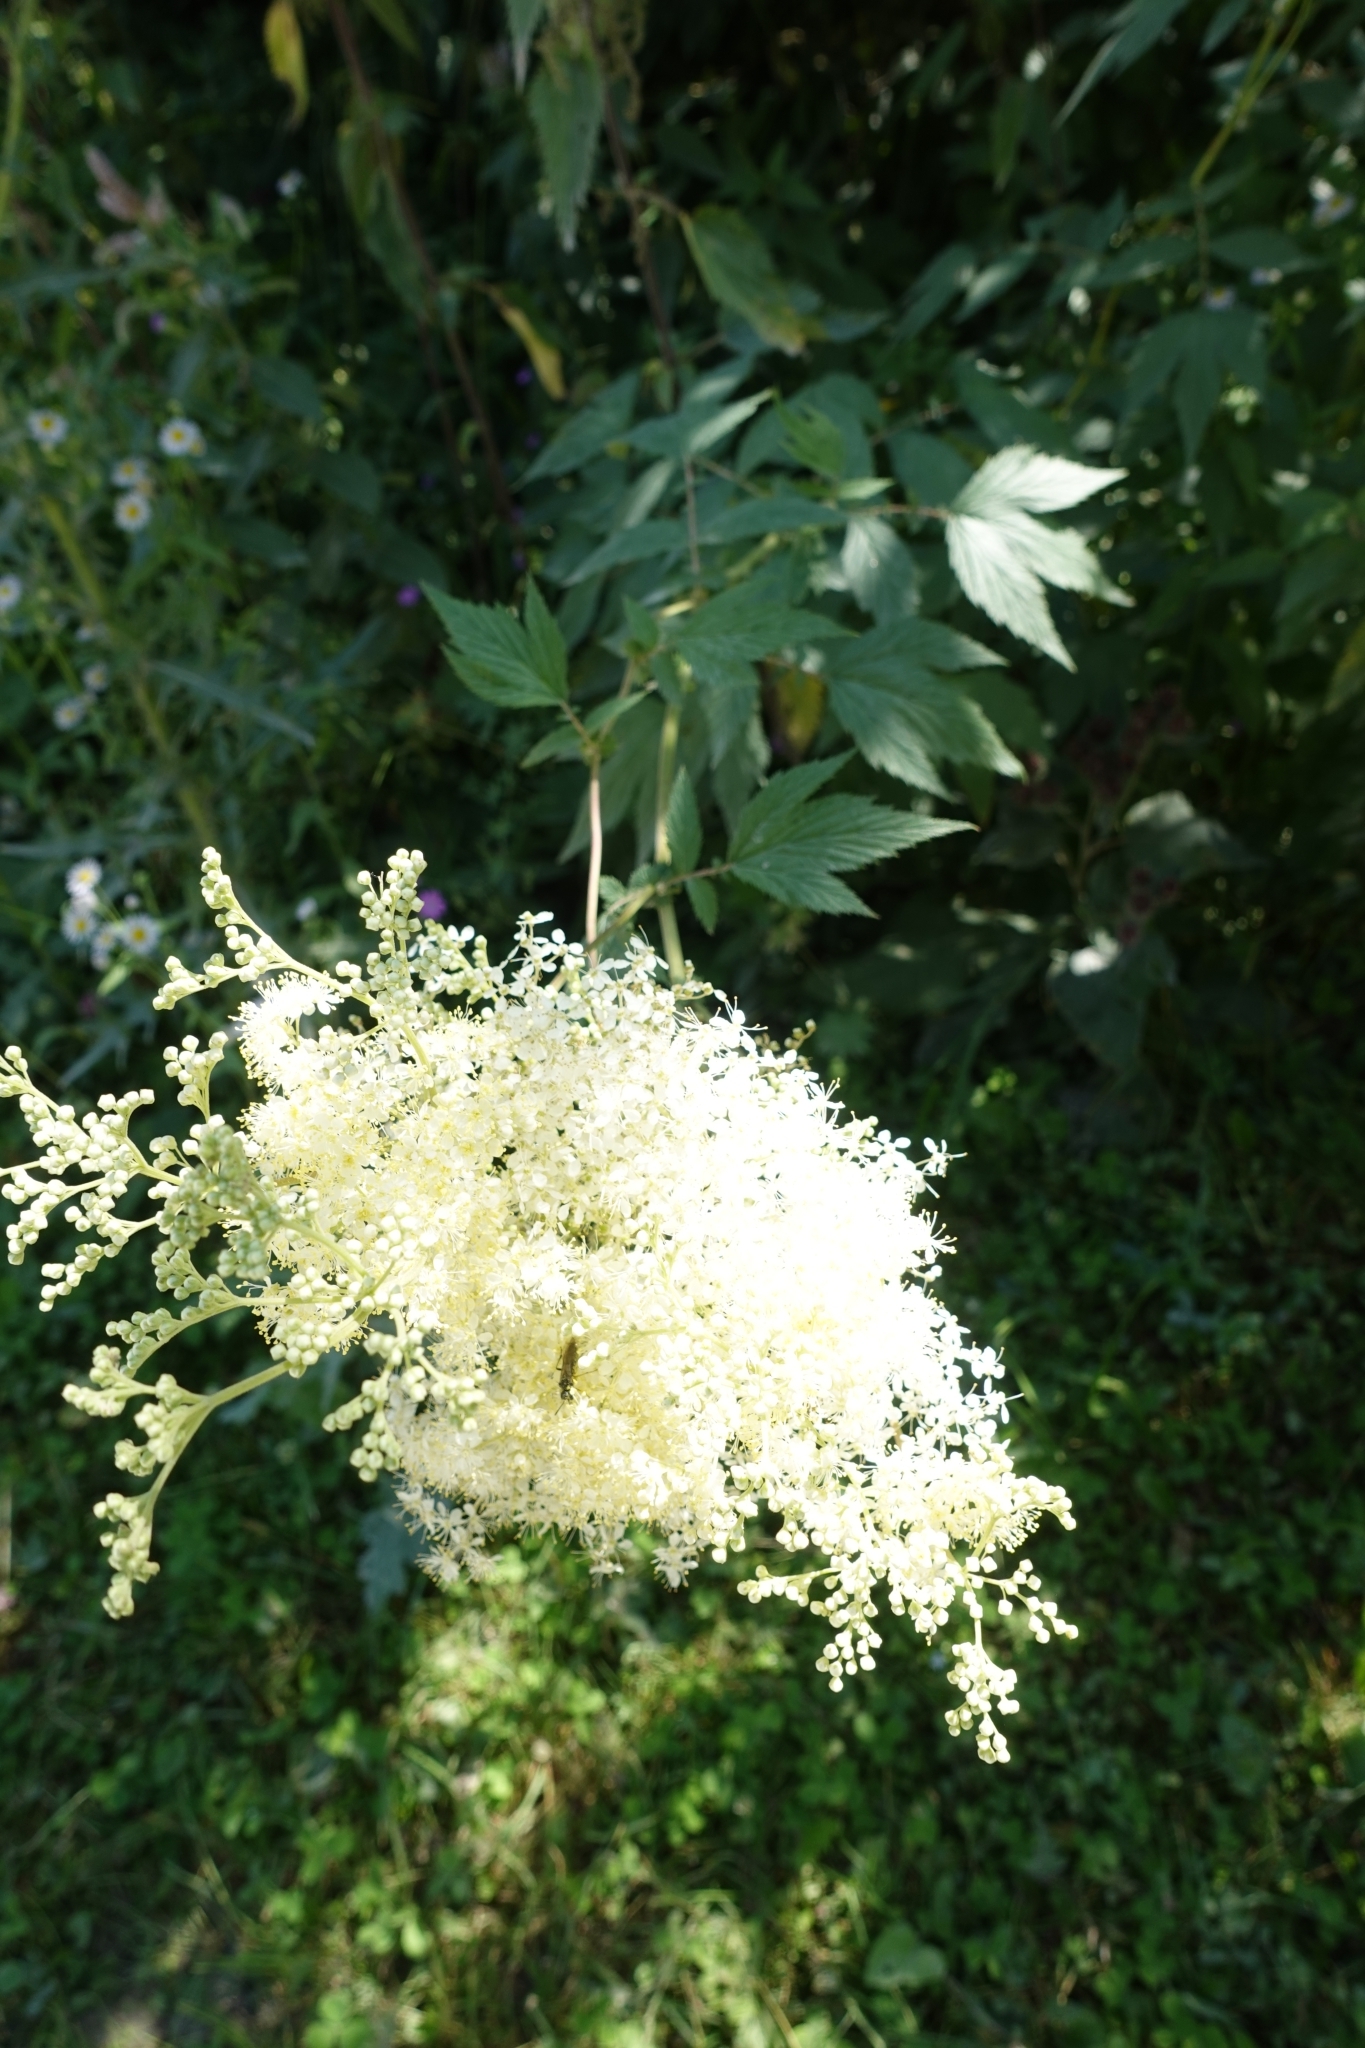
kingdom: Plantae
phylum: Tracheophyta
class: Magnoliopsida
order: Rosales
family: Rosaceae
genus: Filipendula
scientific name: Filipendula ulmaria
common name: Meadowsweet
